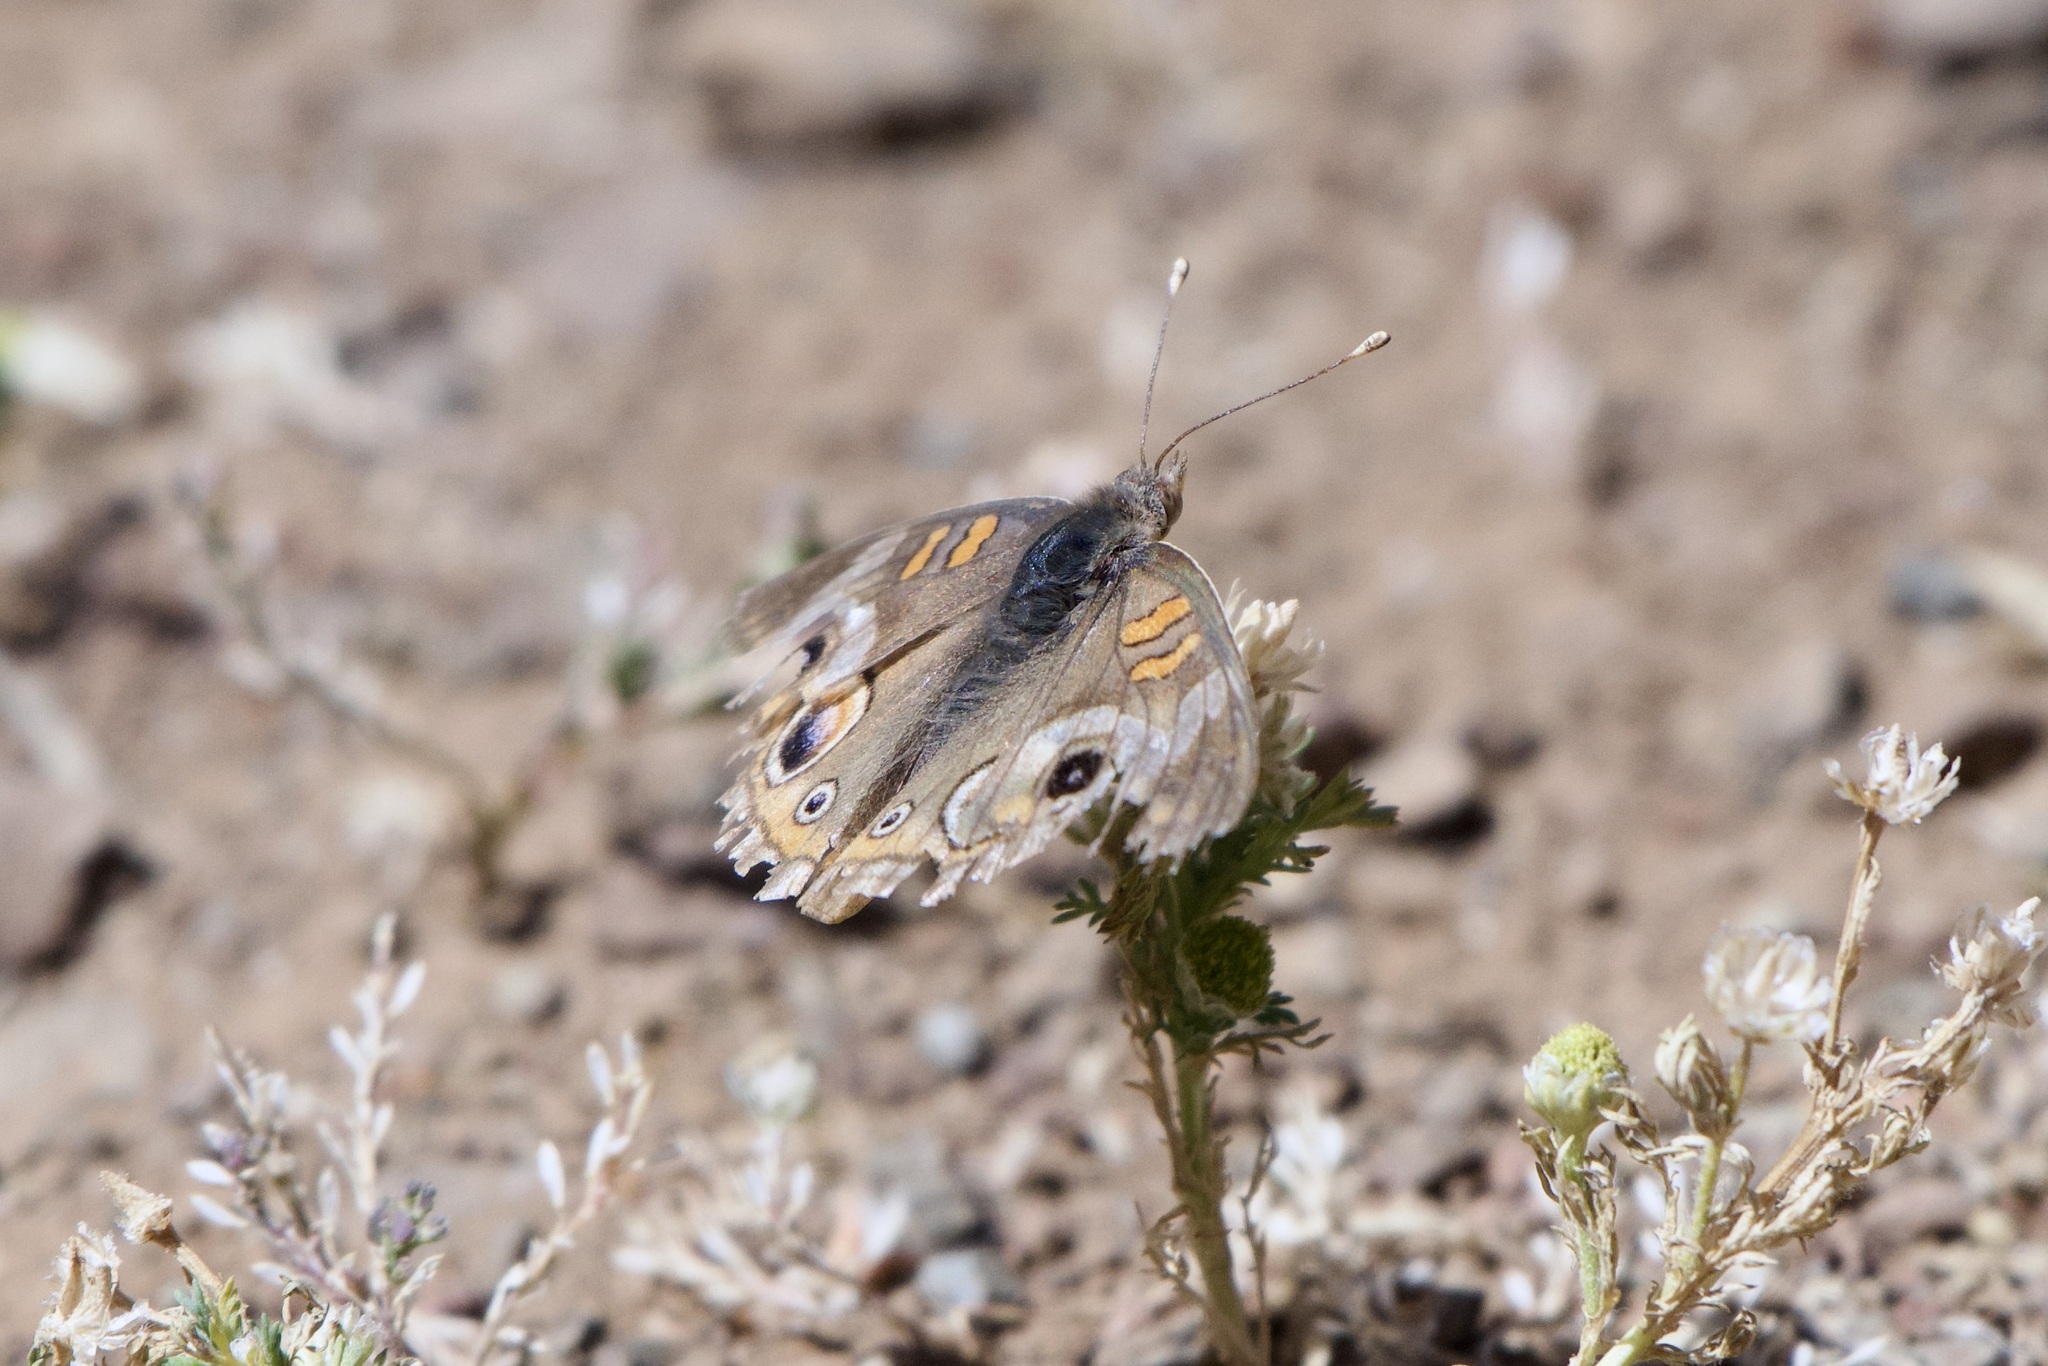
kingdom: Animalia
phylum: Arthropoda
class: Insecta
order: Lepidoptera
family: Nymphalidae
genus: Junonia
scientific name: Junonia grisea
